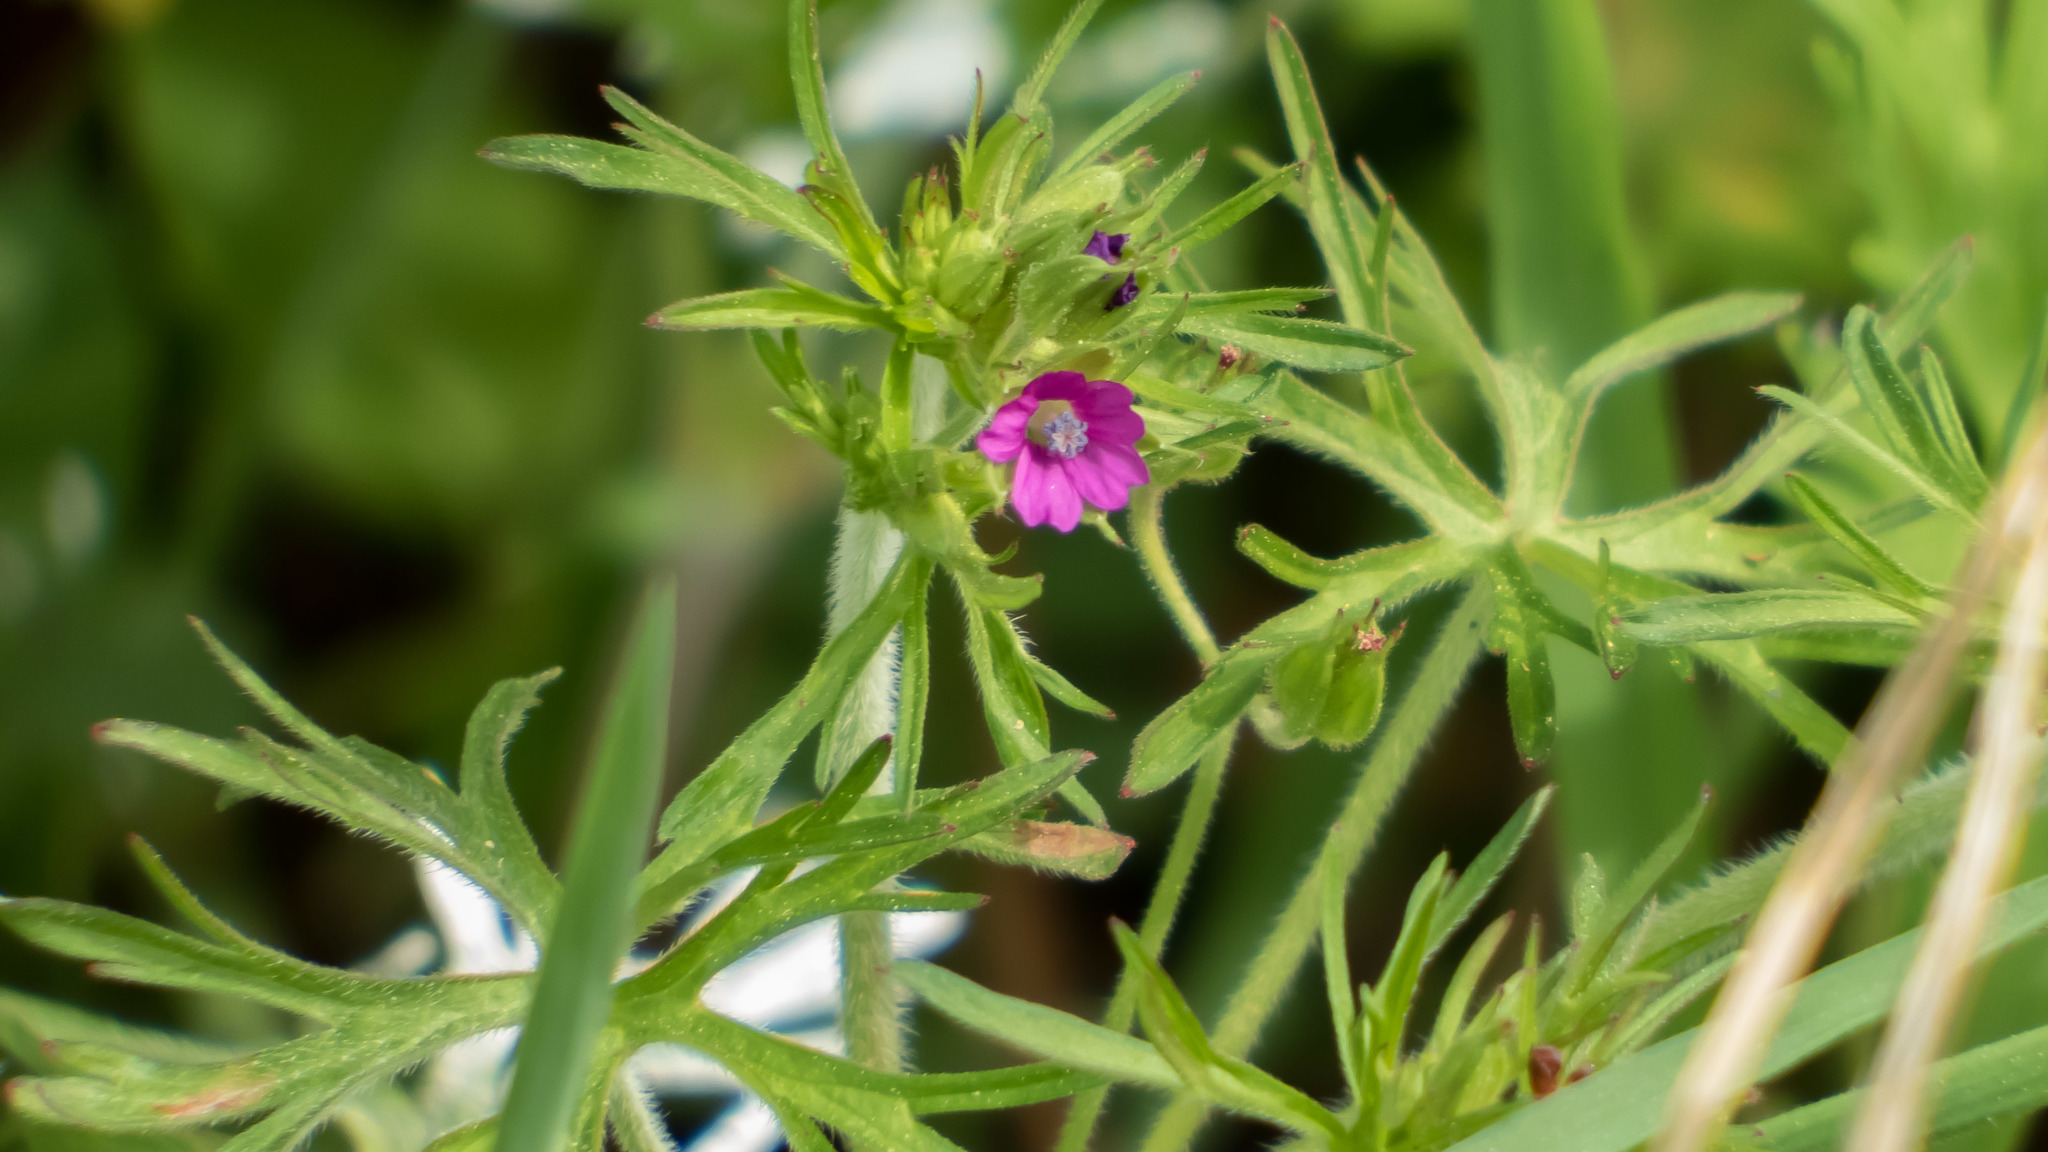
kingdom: Plantae
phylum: Tracheophyta
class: Magnoliopsida
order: Geraniales
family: Geraniaceae
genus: Geranium
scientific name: Geranium dissectum
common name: Cut-leaved crane's-bill
